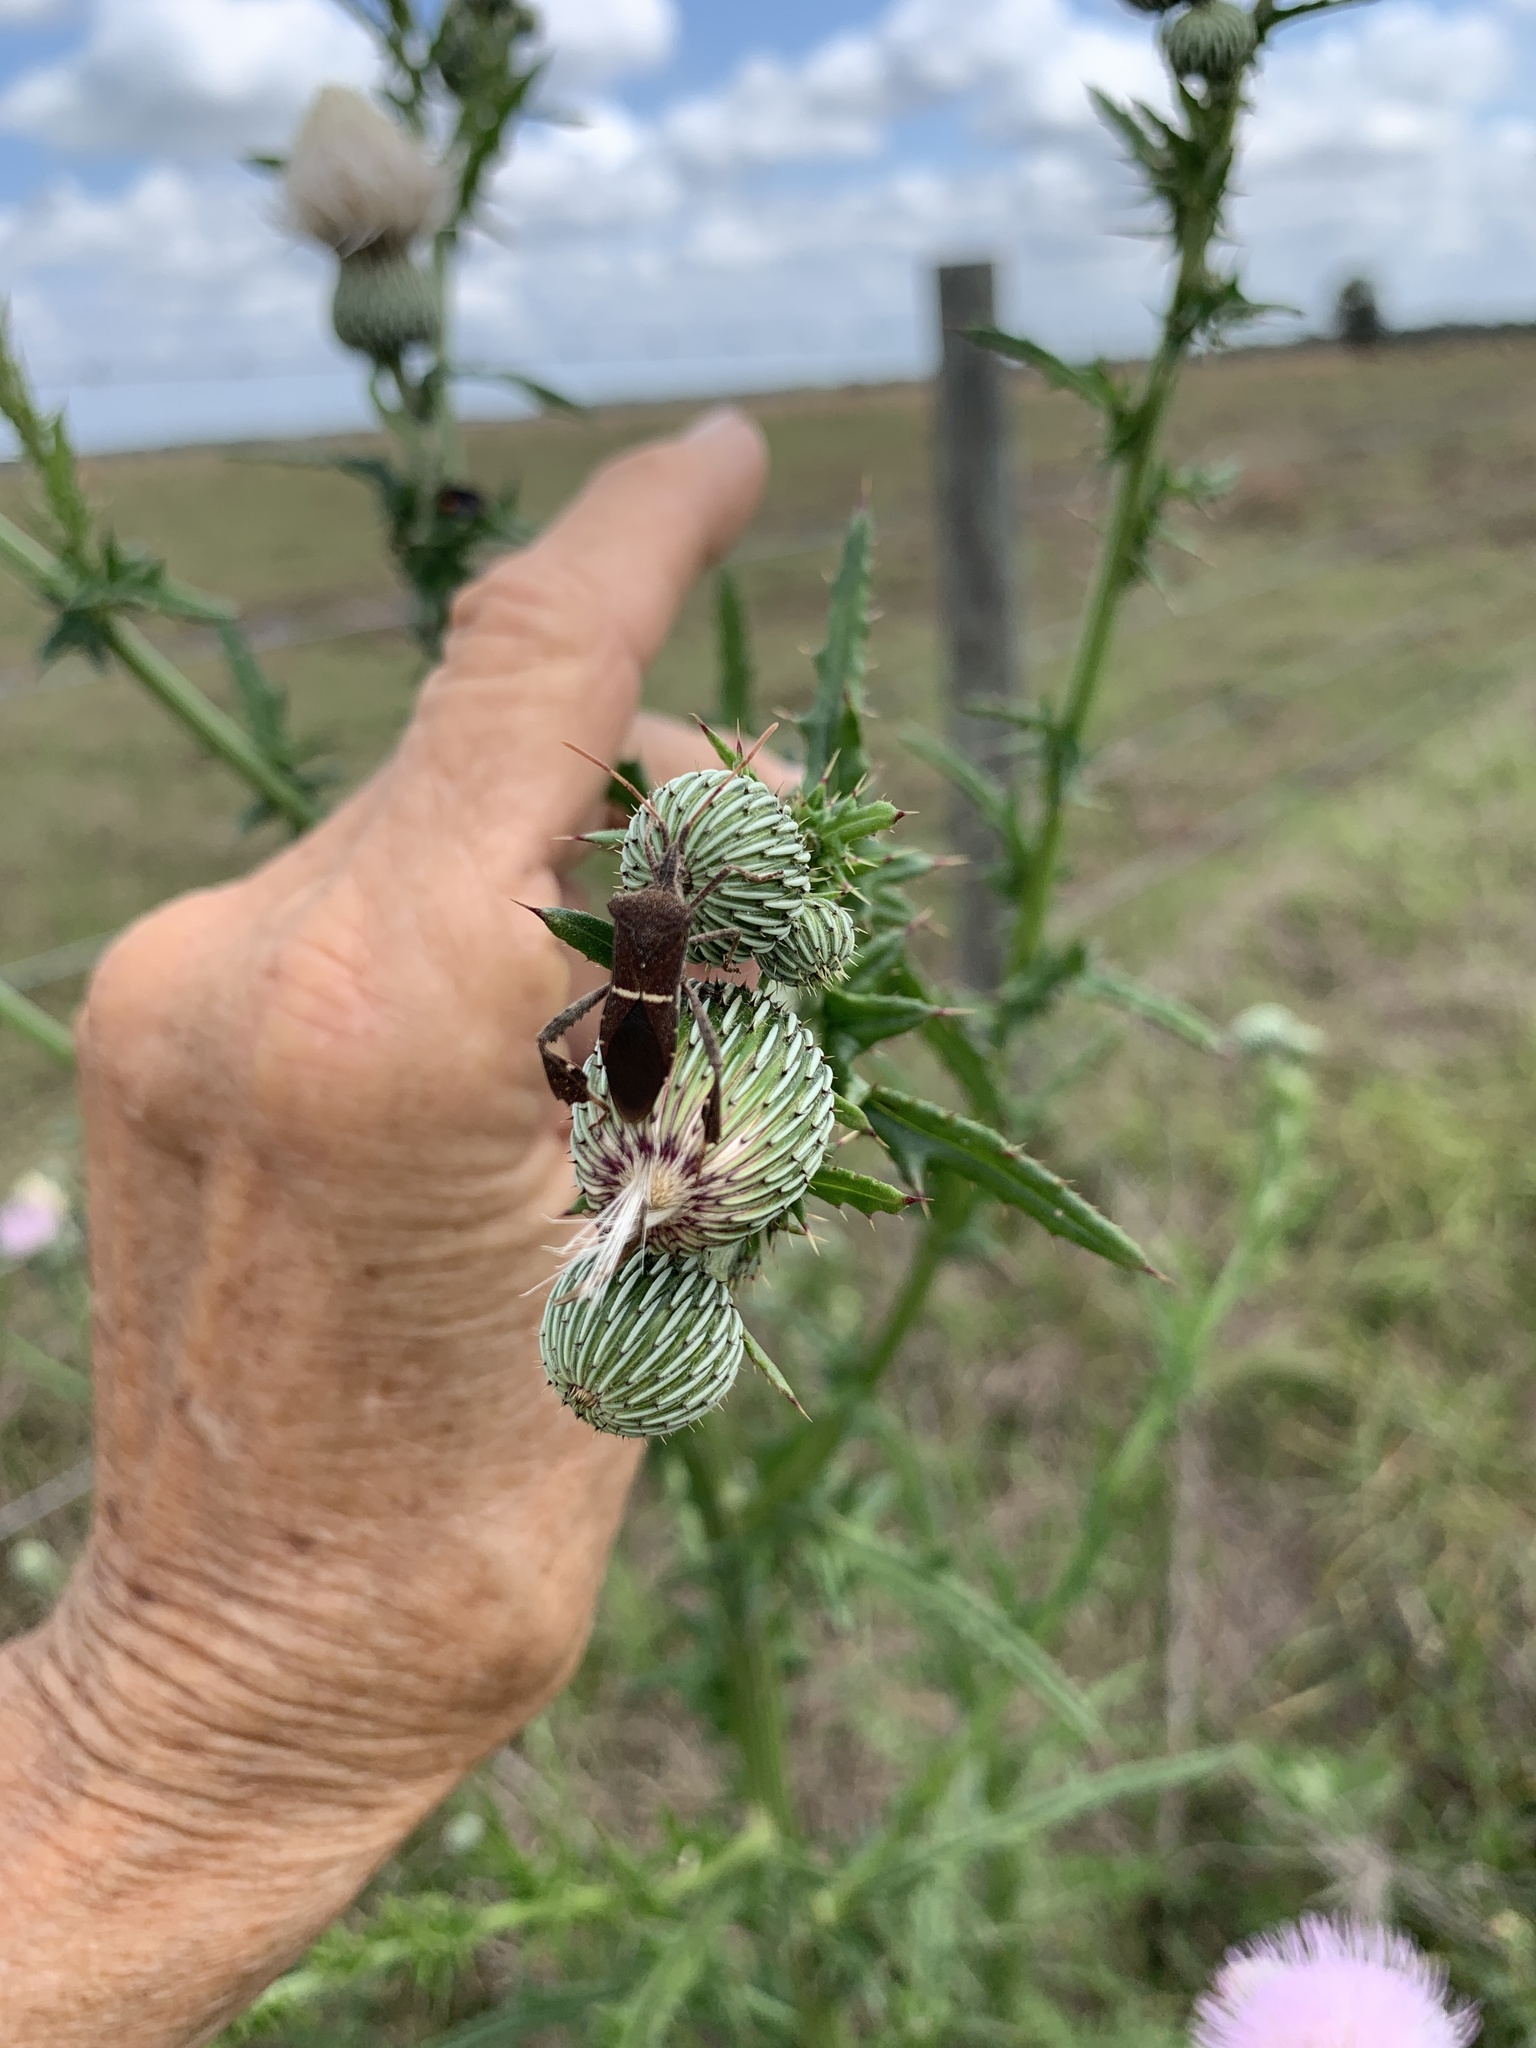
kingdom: Animalia
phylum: Arthropoda
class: Insecta
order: Hemiptera
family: Coreidae
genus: Leptoglossus
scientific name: Leptoglossus phyllopus
